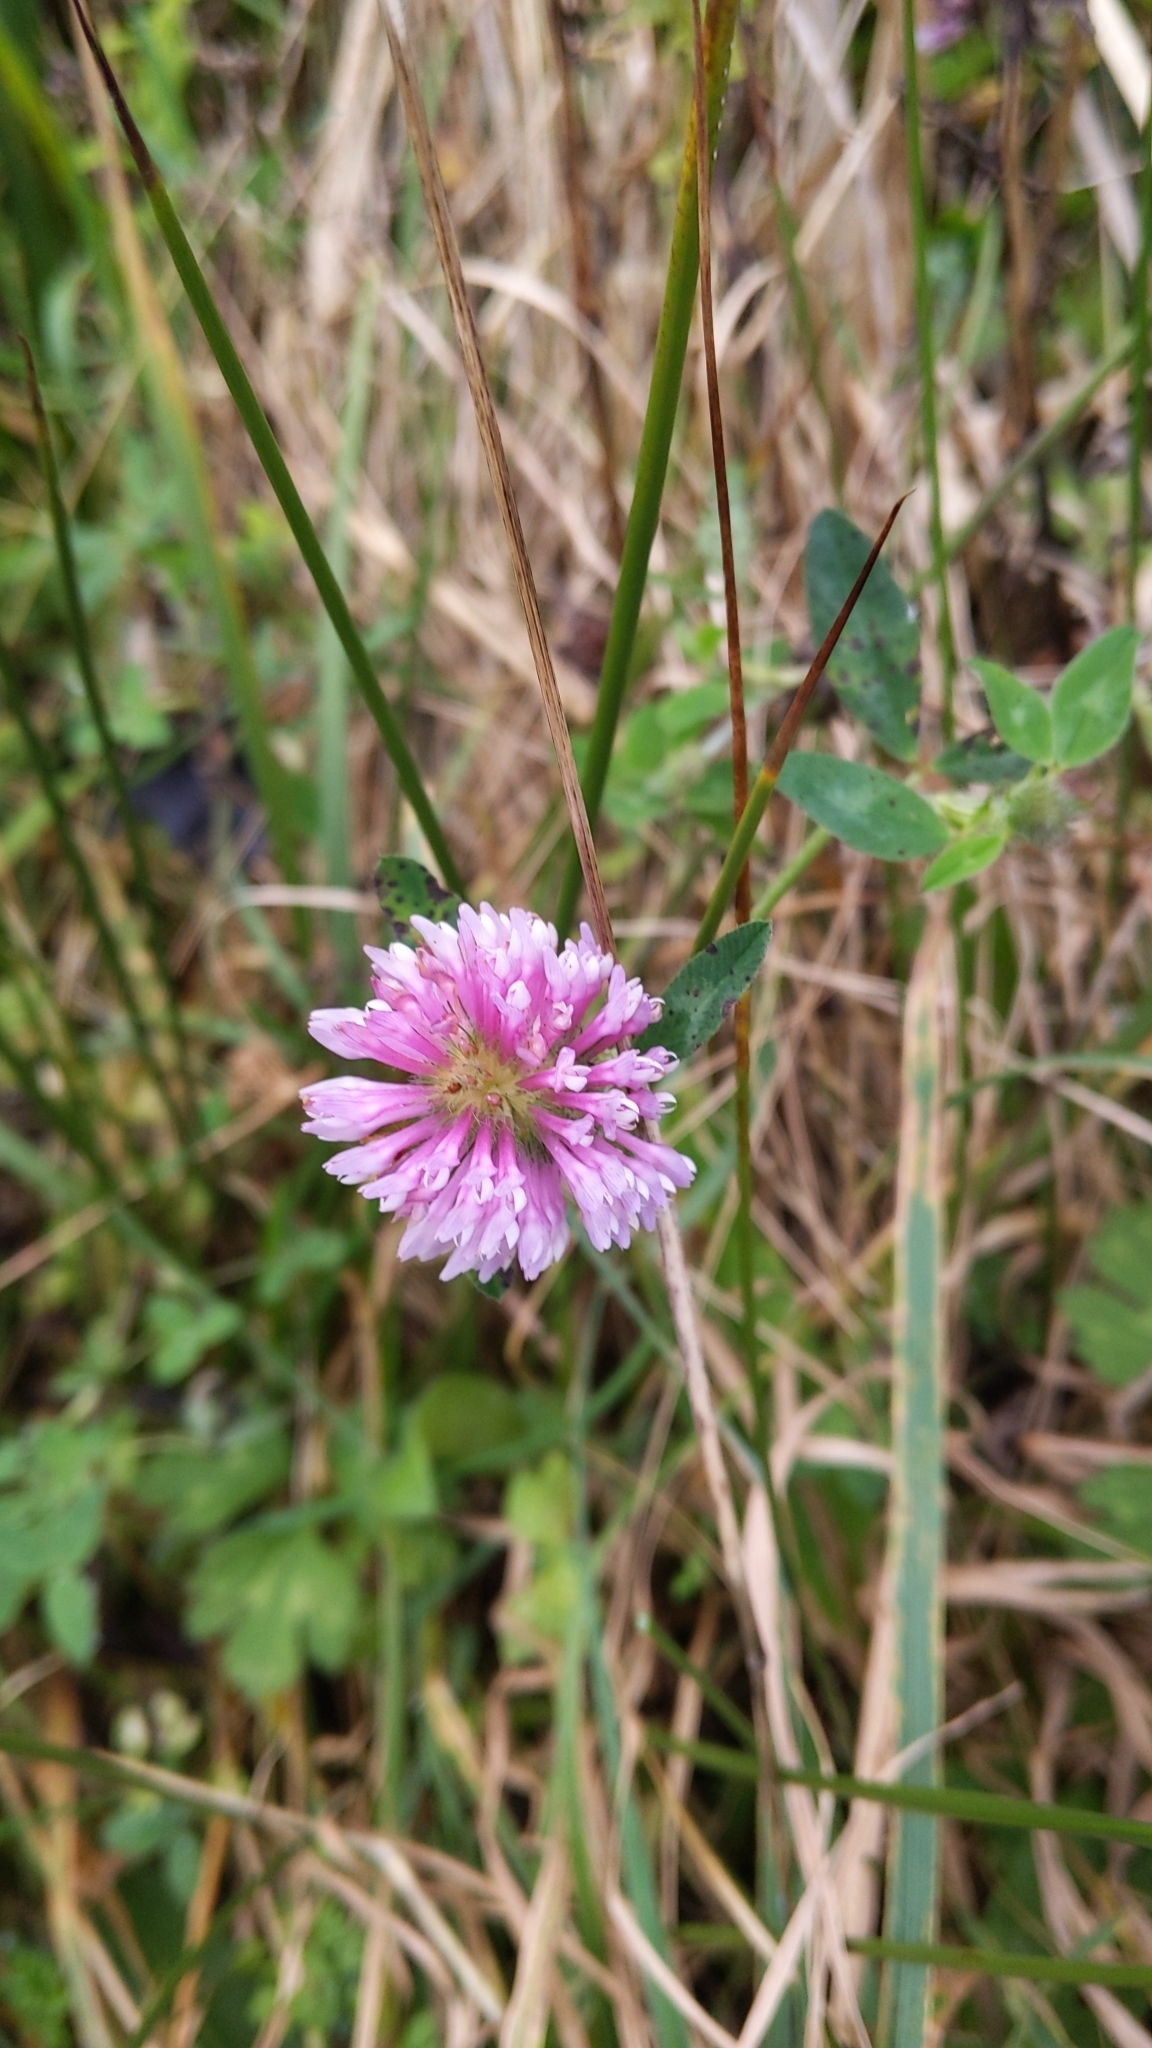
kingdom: Plantae
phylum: Tracheophyta
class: Magnoliopsida
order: Fabales
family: Fabaceae
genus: Trifolium
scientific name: Trifolium pratense
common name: Red clover
